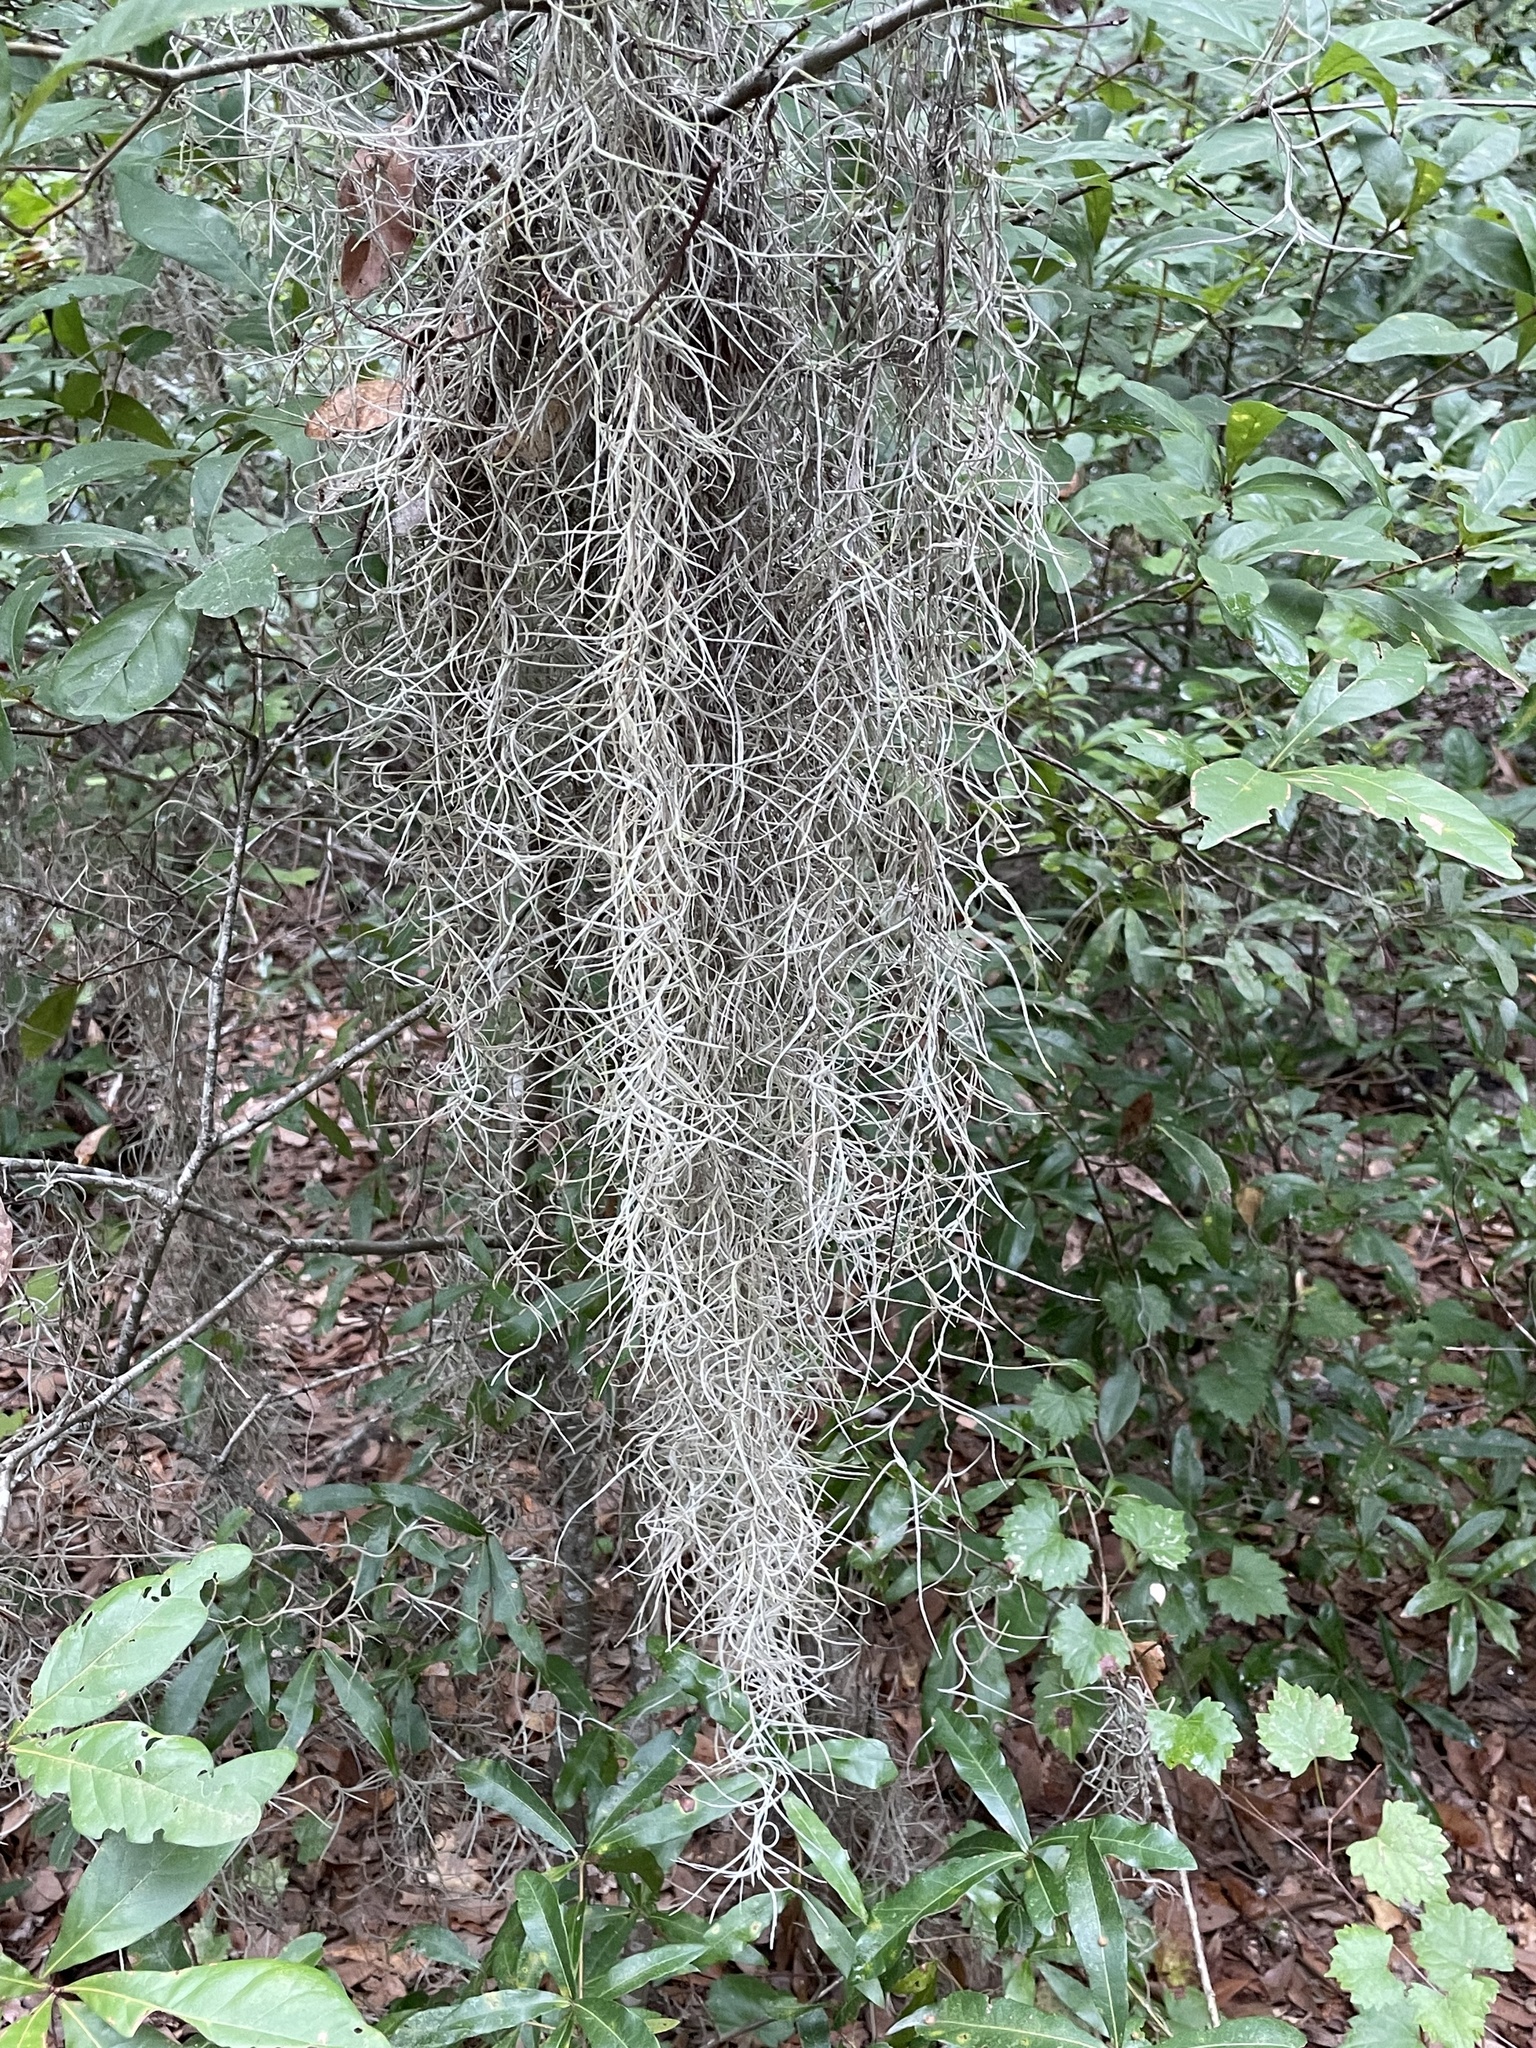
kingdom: Plantae
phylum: Tracheophyta
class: Liliopsida
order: Poales
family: Bromeliaceae
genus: Tillandsia
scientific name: Tillandsia usneoides
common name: Spanish moss
